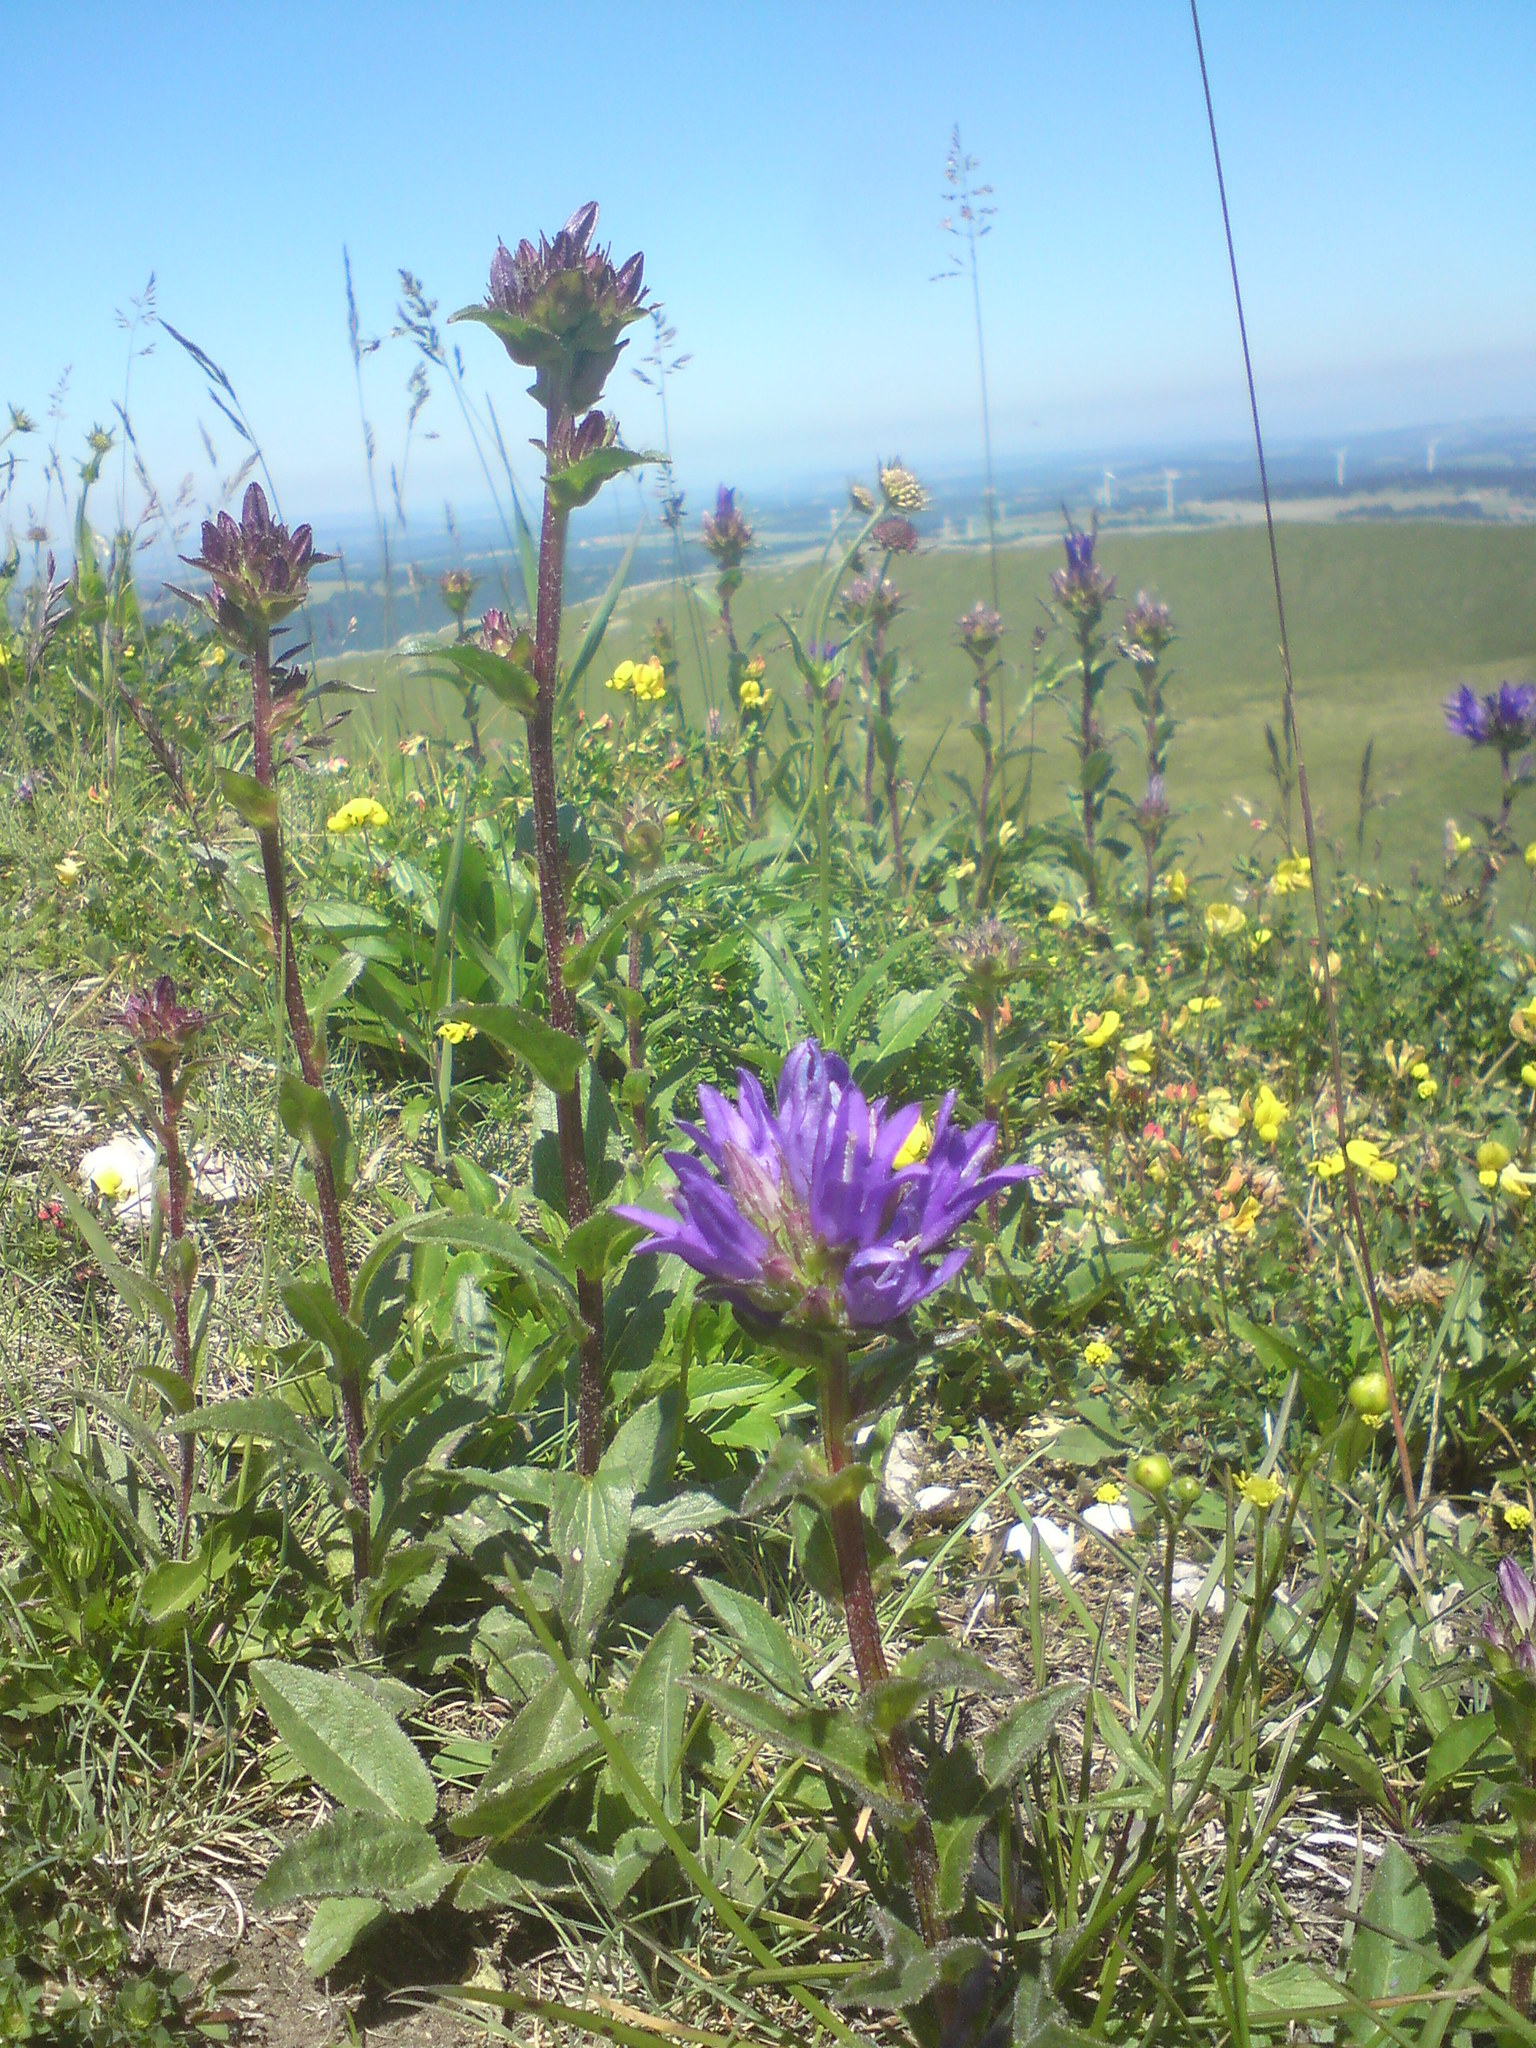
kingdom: Plantae
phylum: Tracheophyta
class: Magnoliopsida
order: Asterales
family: Campanulaceae
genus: Campanula
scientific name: Campanula glomerata
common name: Clustered bellflower
